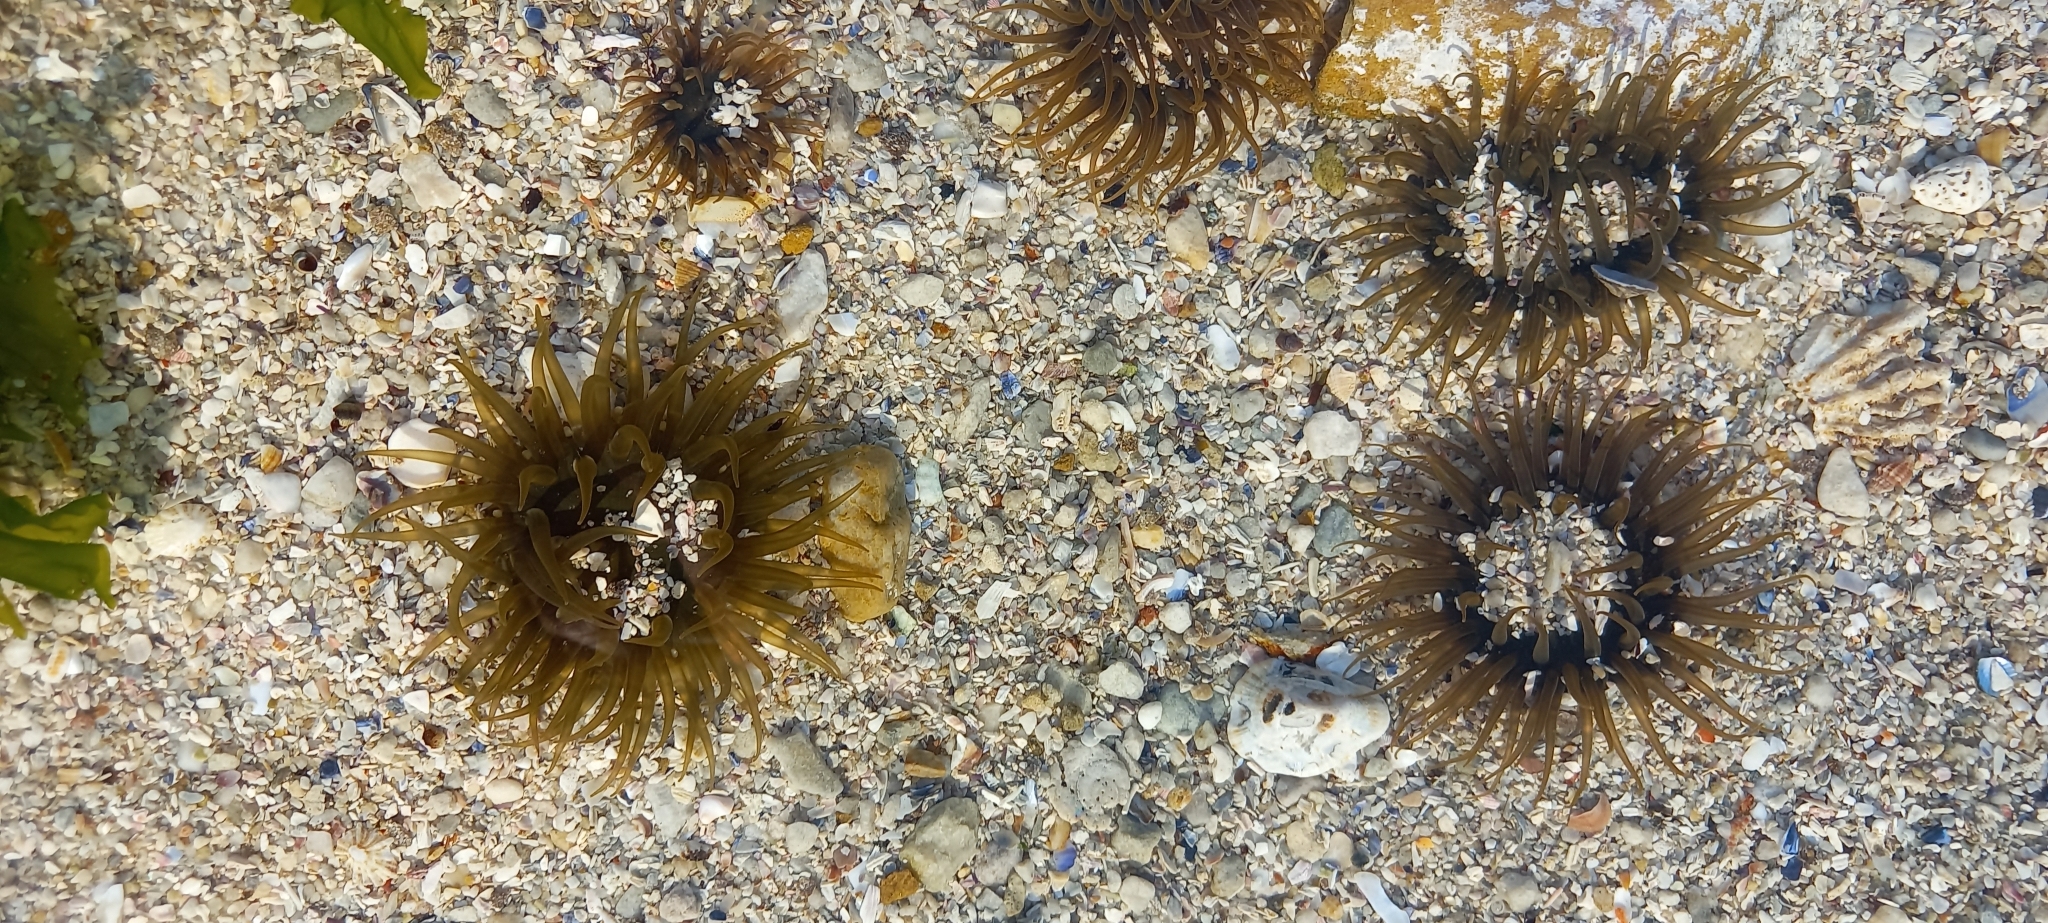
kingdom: Animalia
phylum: Cnidaria
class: Anthozoa
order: Actiniaria
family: Actiniidae
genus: Anthopleura
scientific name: Anthopleura michaelseni
